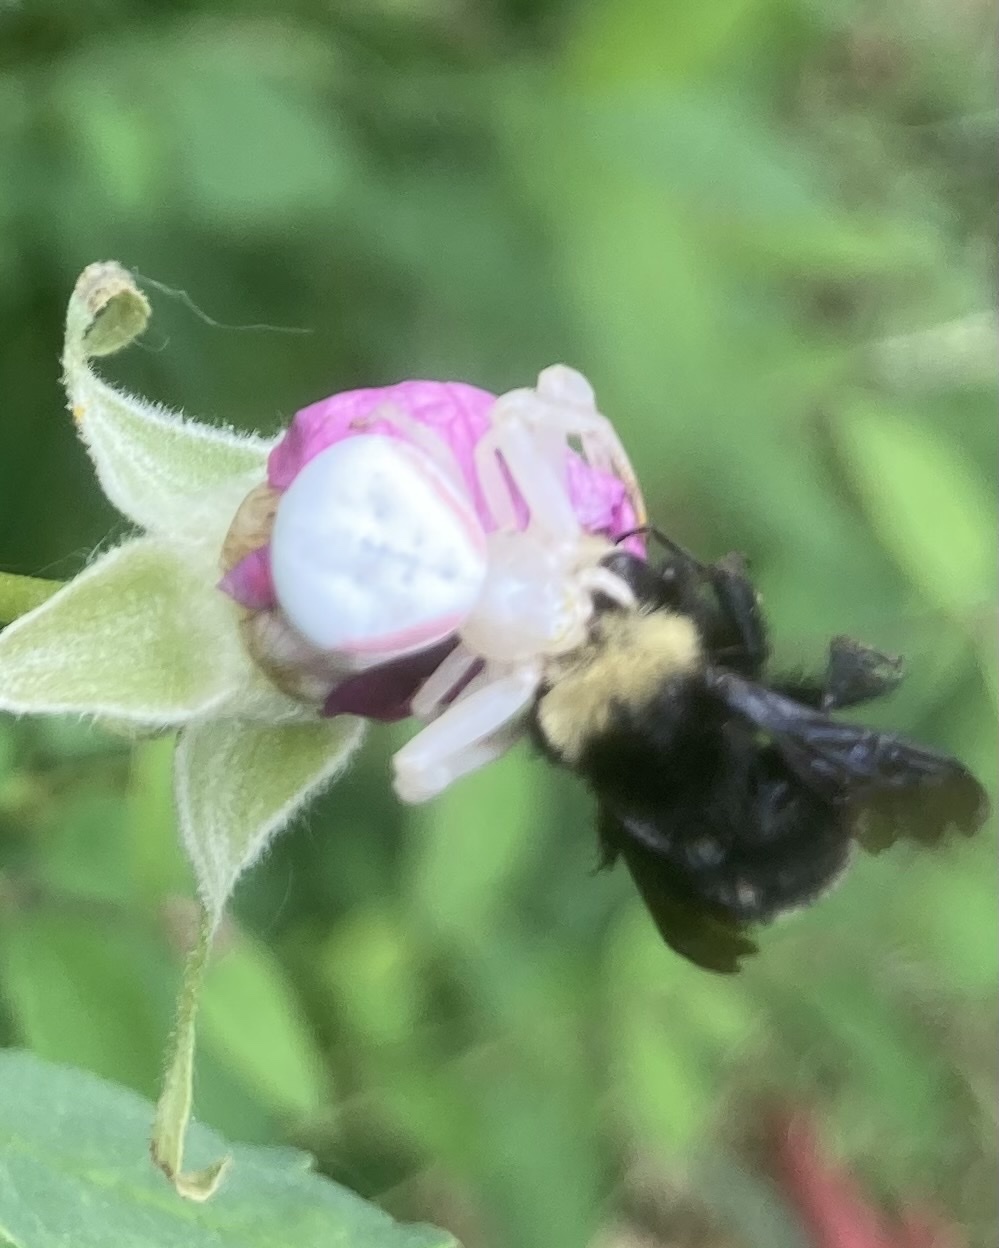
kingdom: Animalia
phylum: Arthropoda
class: Arachnida
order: Araneae
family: Thomisidae
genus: Misumena
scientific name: Misumena vatia
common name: Goldenrod crab spider
